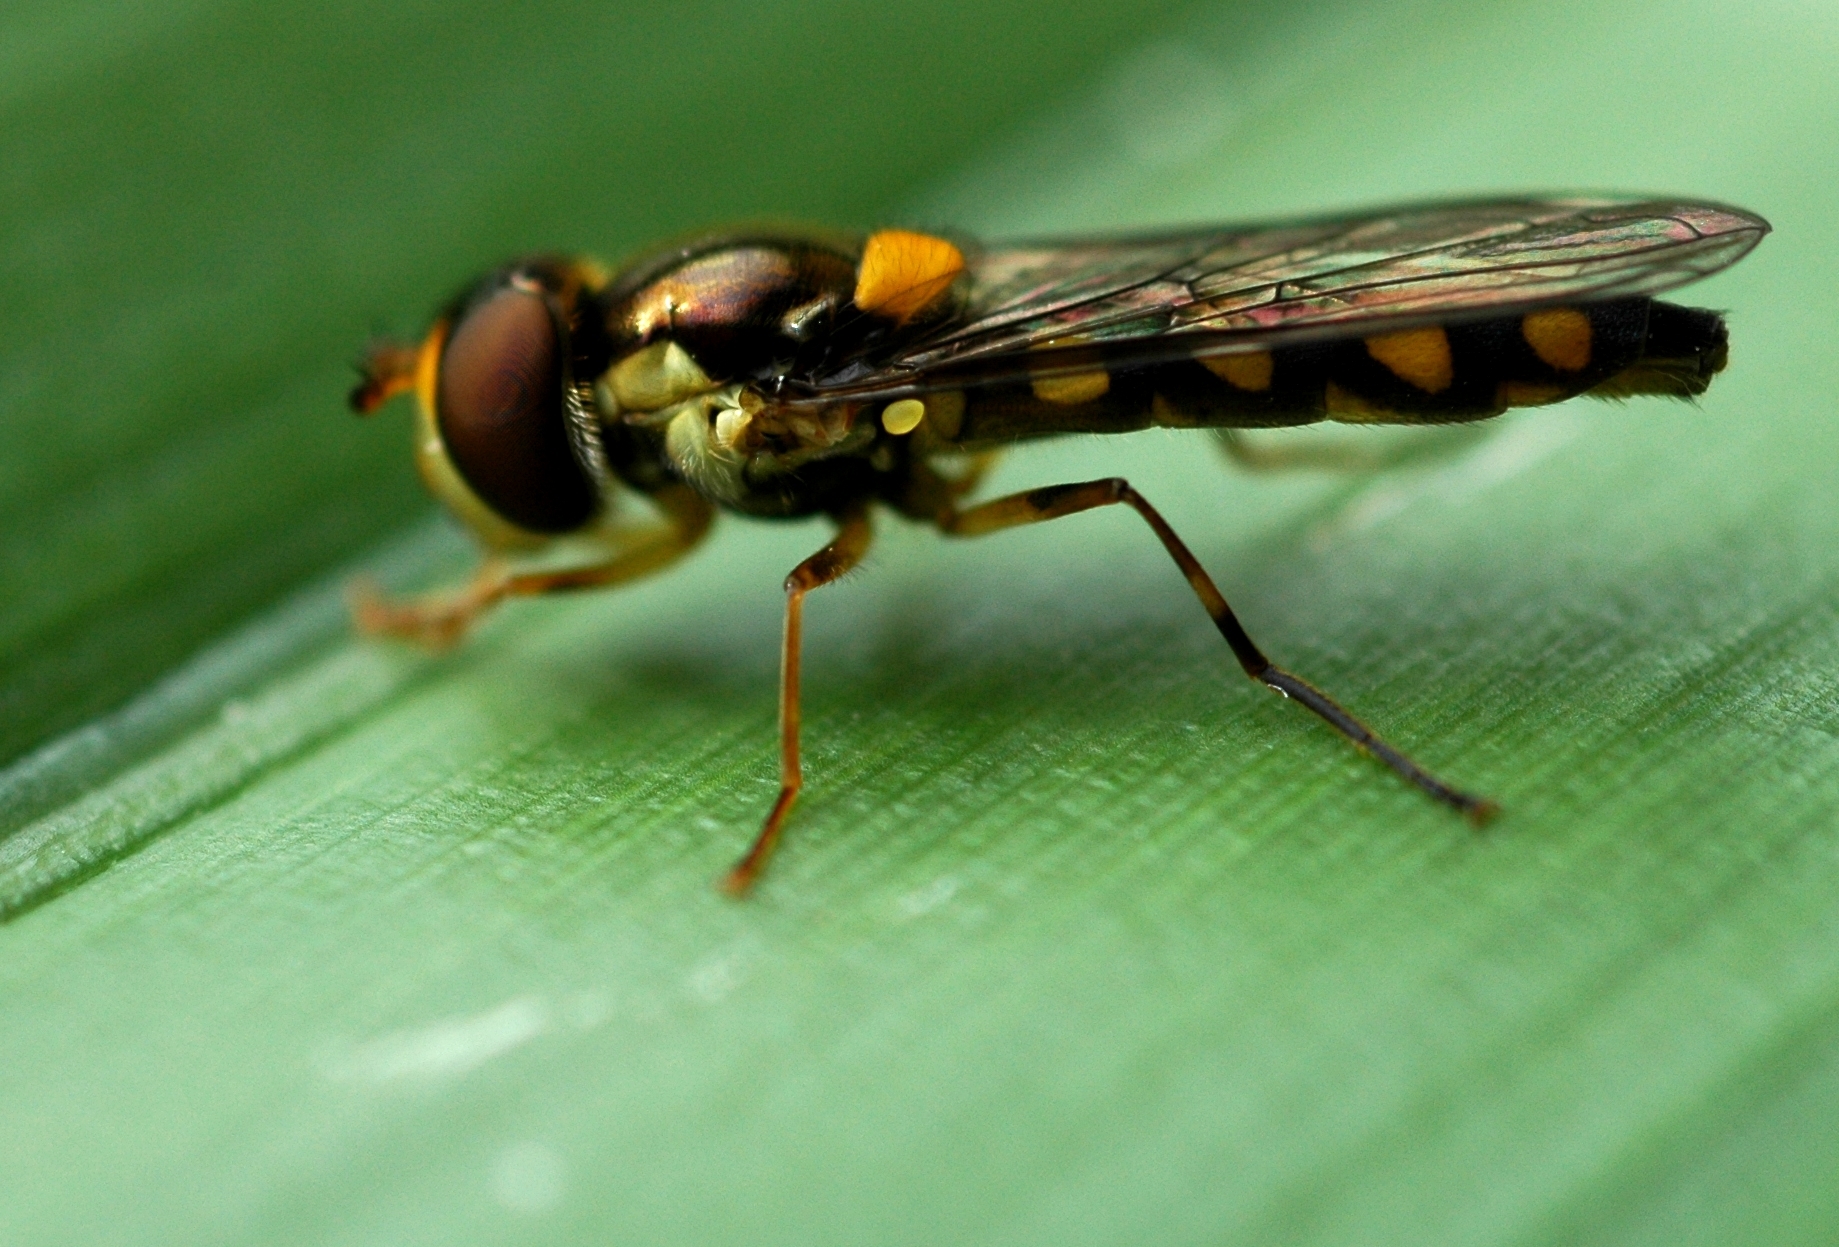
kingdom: Animalia
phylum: Arthropoda
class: Insecta
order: Diptera
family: Syrphidae
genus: Allograpta
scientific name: Allograpta ropala
